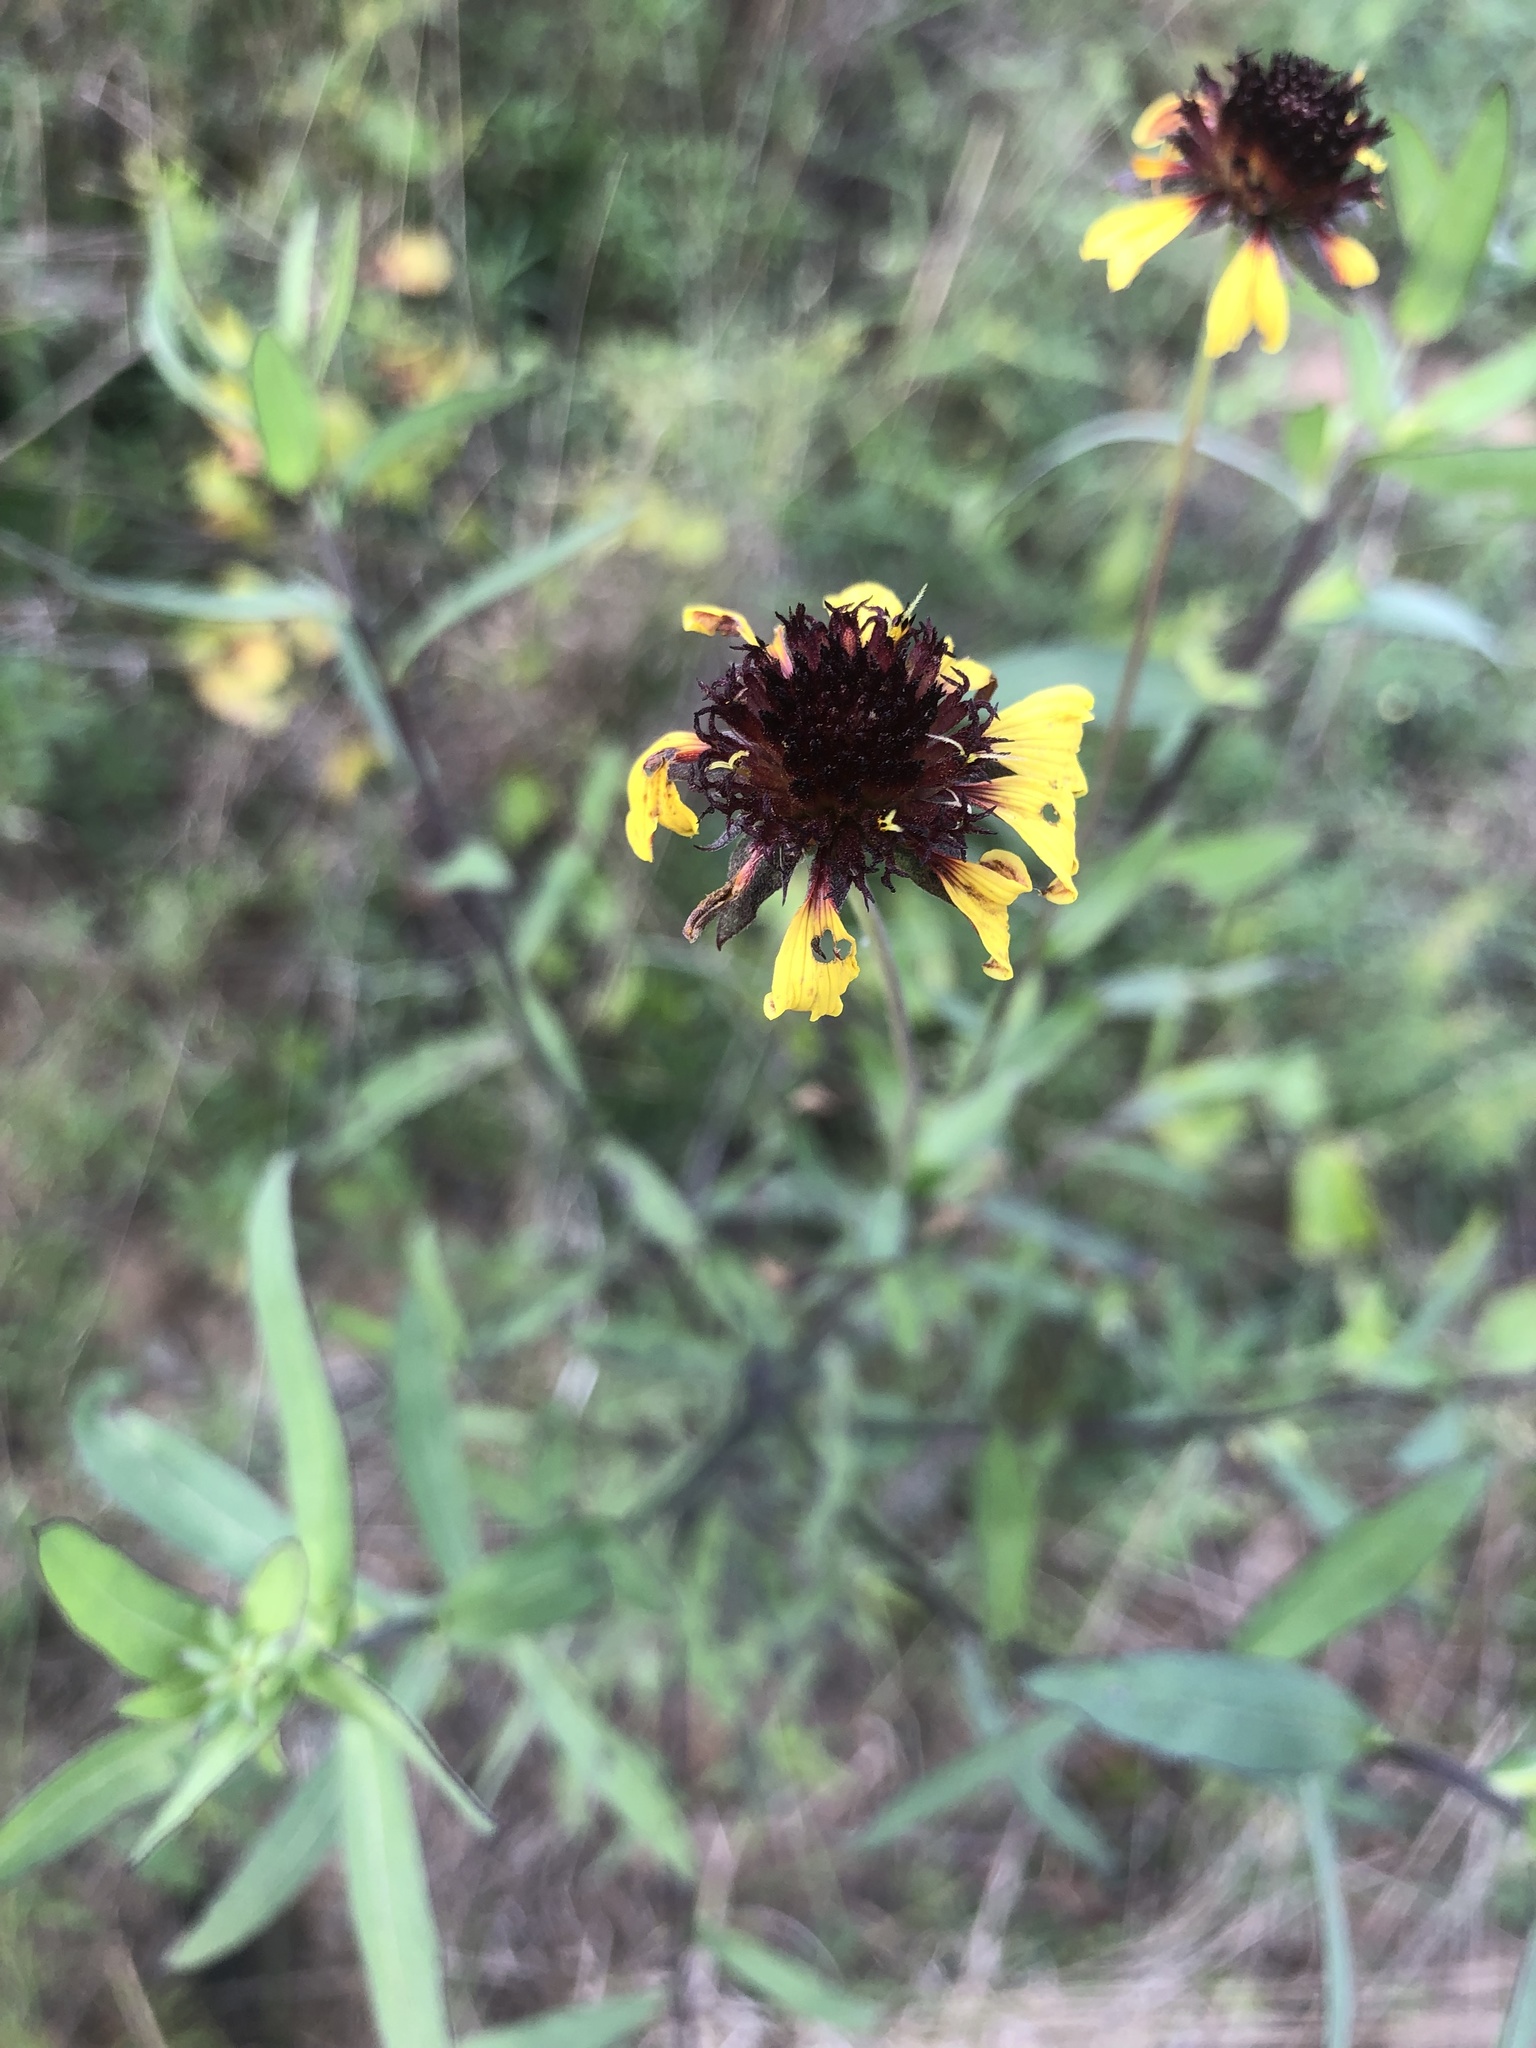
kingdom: Plantae
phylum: Tracheophyta
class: Magnoliopsida
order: Asterales
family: Asteraceae
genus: Gaillardia
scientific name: Gaillardia aestivalis
